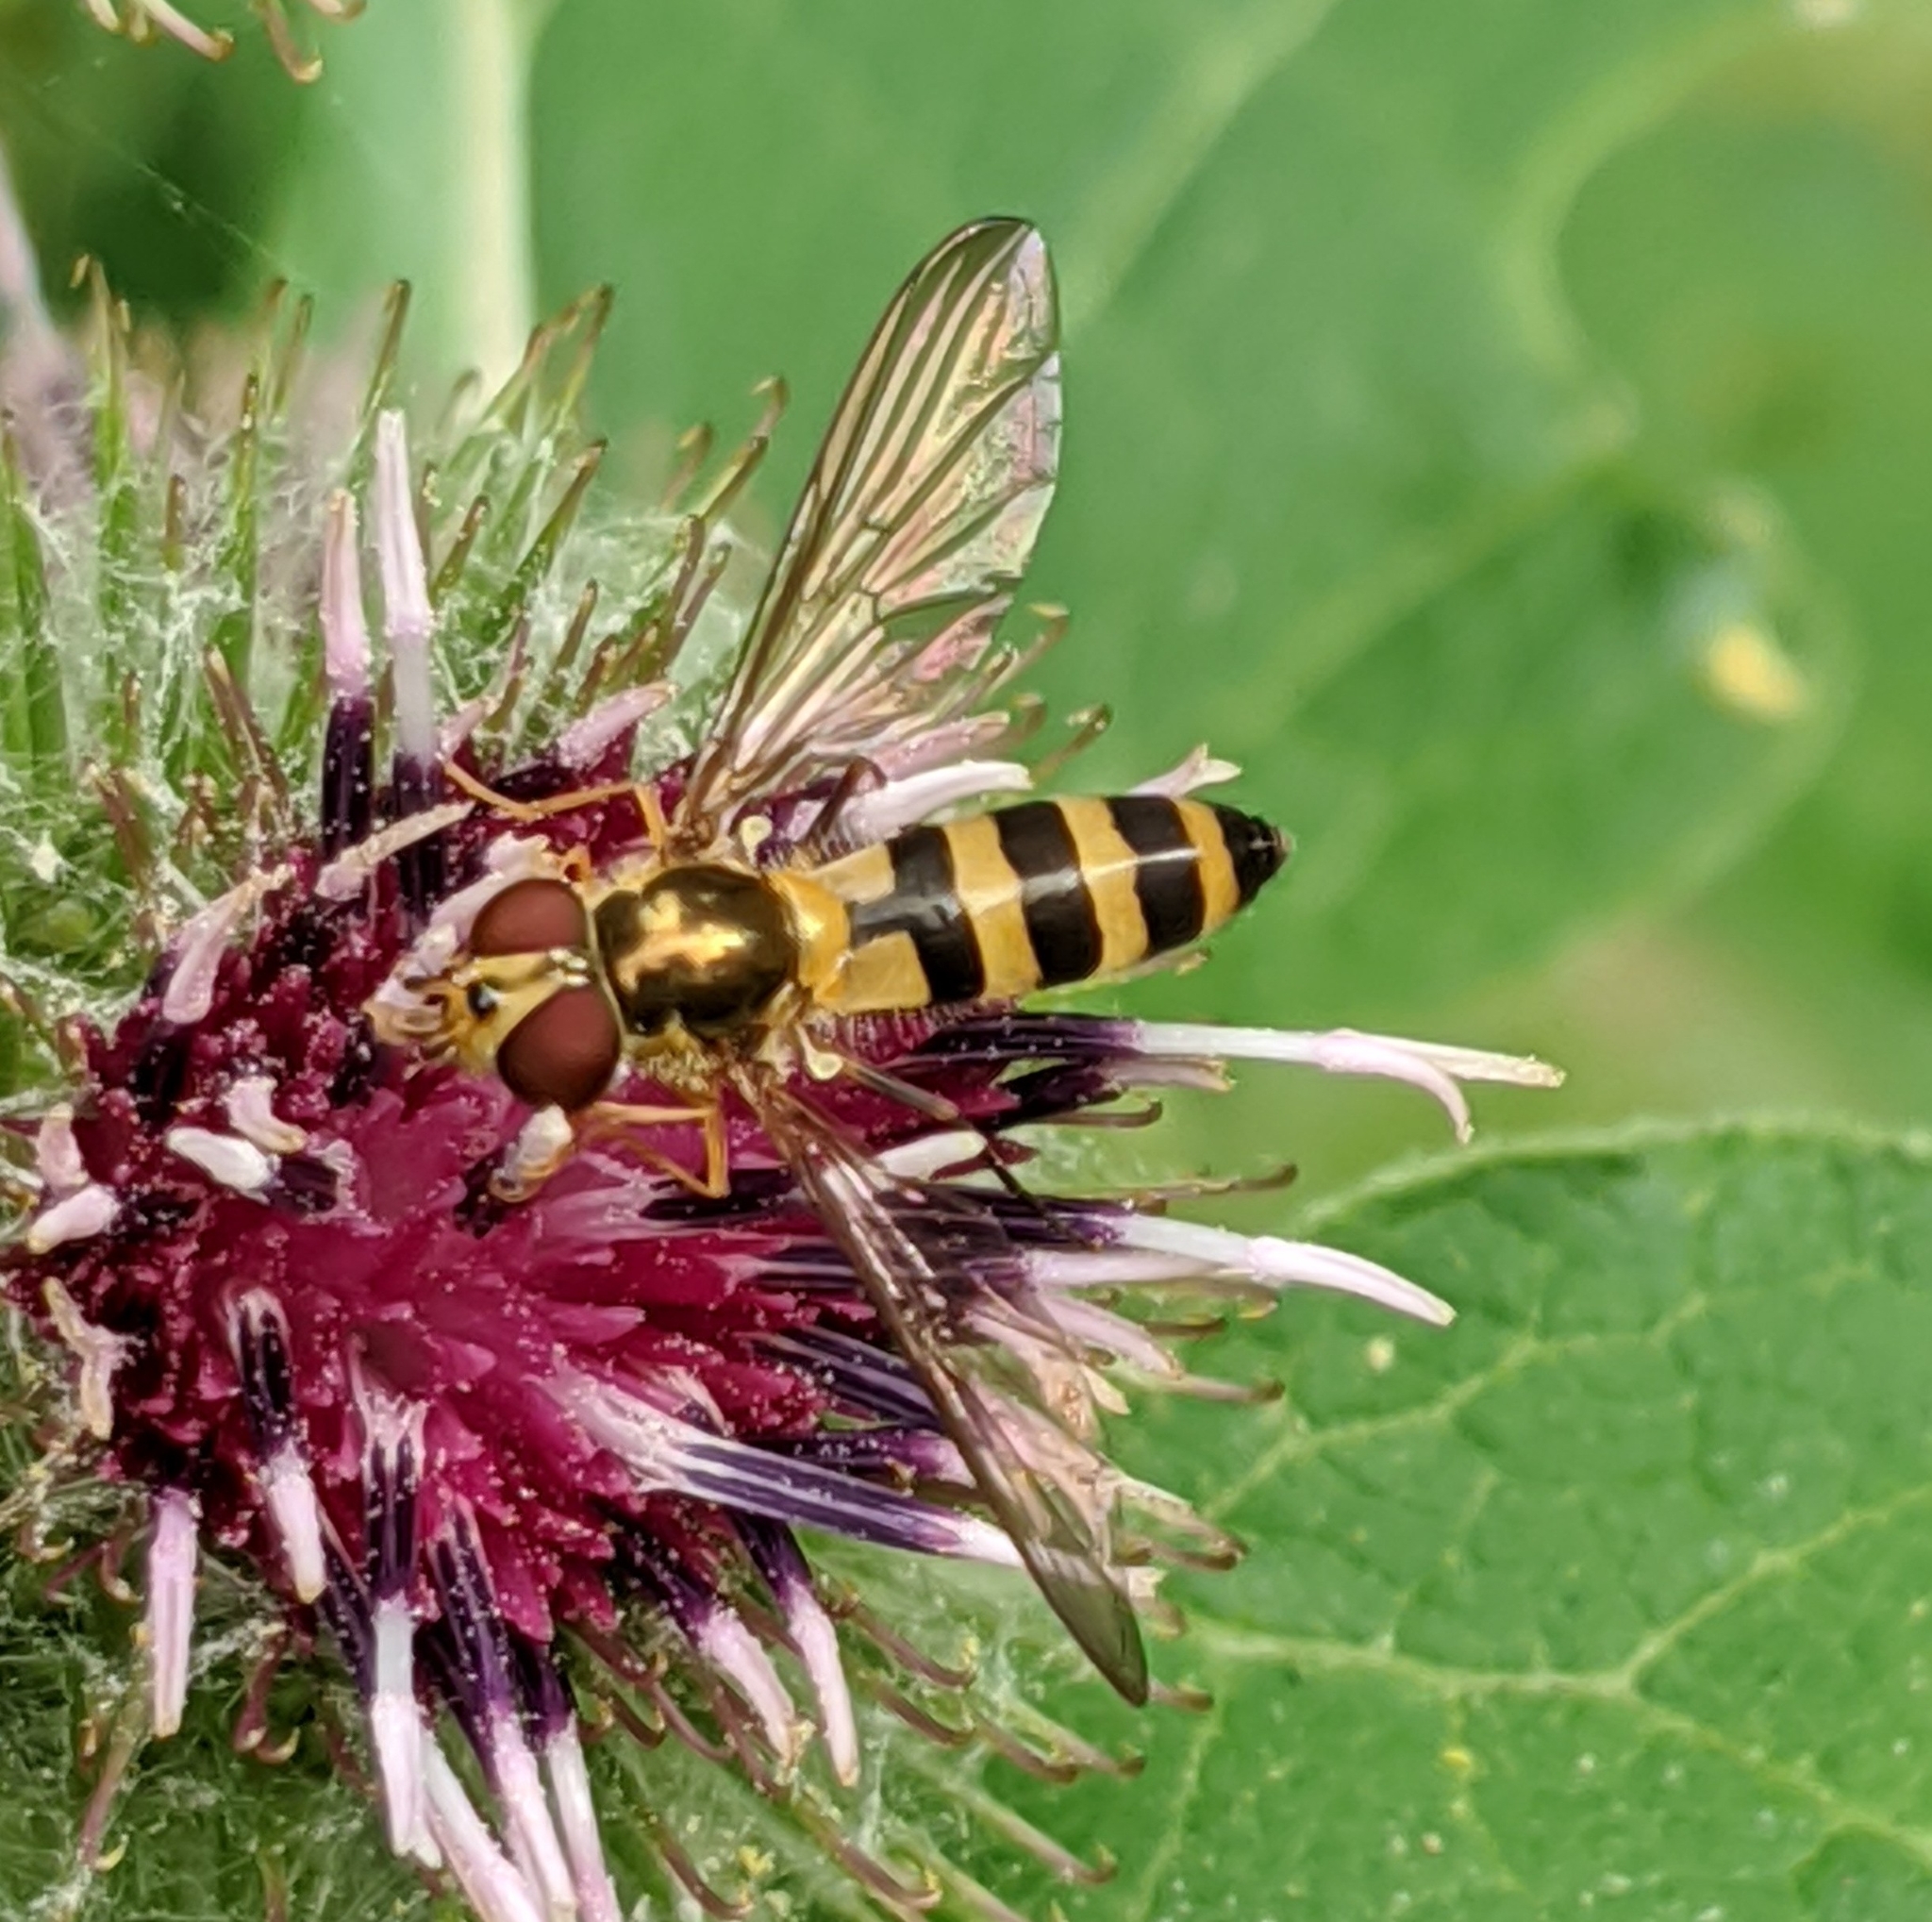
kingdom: Animalia
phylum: Arthropoda
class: Insecta
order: Diptera
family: Syrphidae
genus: Meliscaeva
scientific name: Meliscaeva cinctella
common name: American thintail fly
